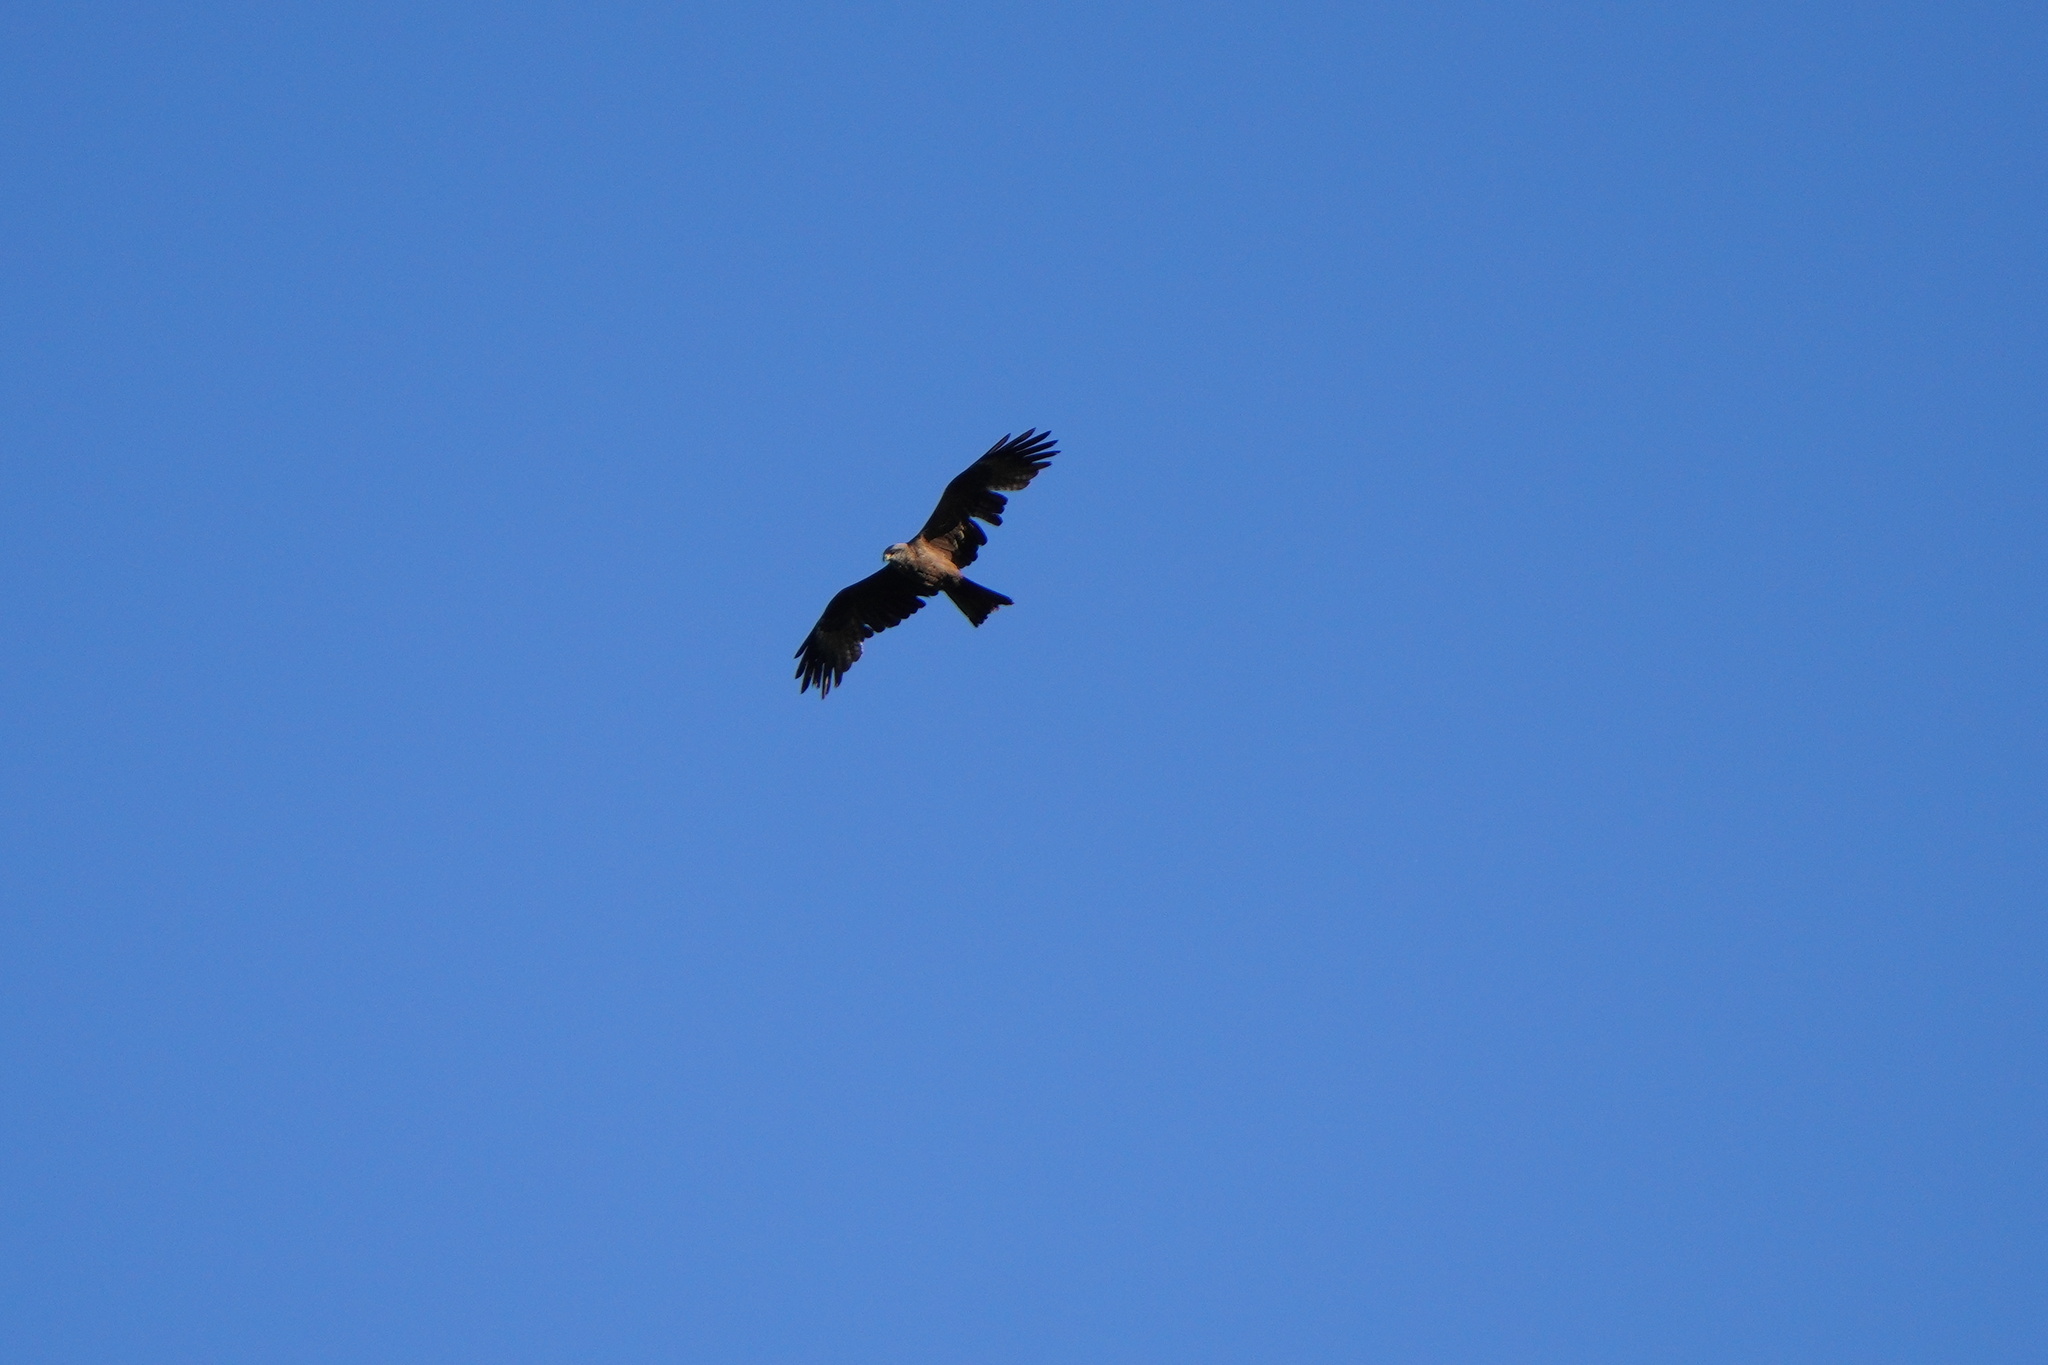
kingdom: Animalia
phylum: Chordata
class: Aves
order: Accipitriformes
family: Accipitridae
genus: Milvus
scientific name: Milvus migrans
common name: Black kite
